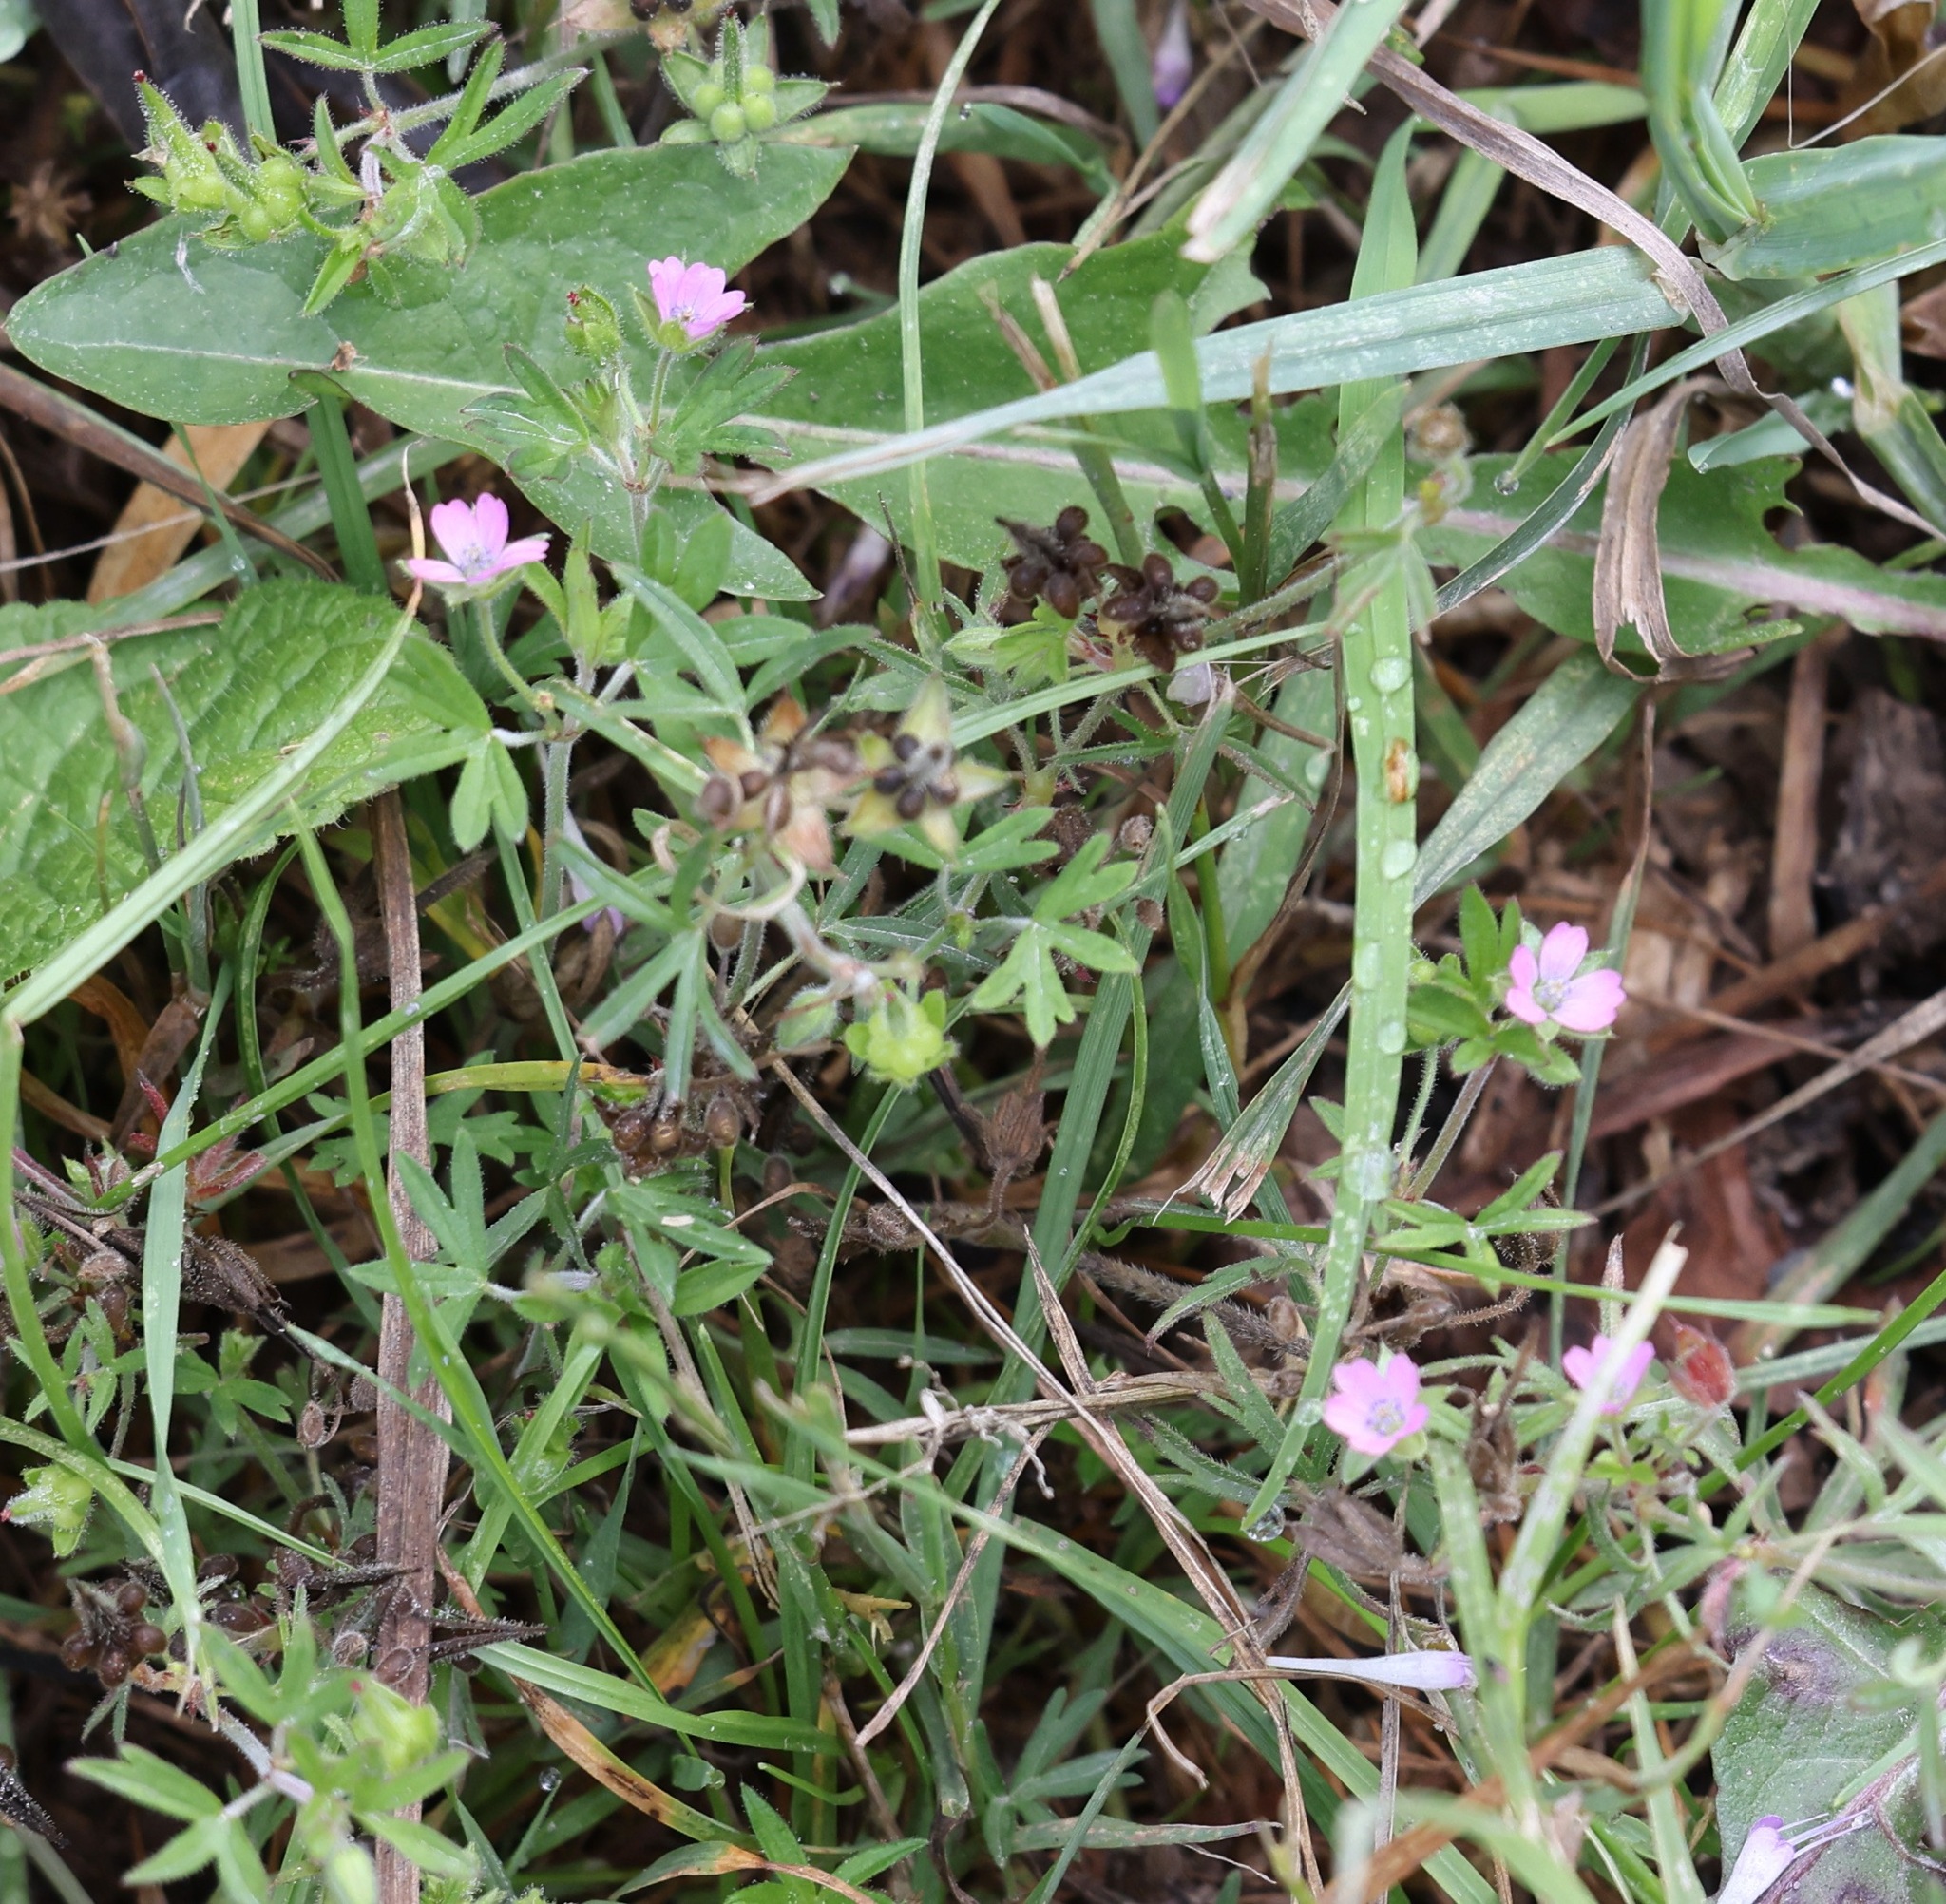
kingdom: Plantae
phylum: Tracheophyta
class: Magnoliopsida
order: Geraniales
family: Geraniaceae
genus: Geranium
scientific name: Geranium dissectum
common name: Cut-leaved crane's-bill
